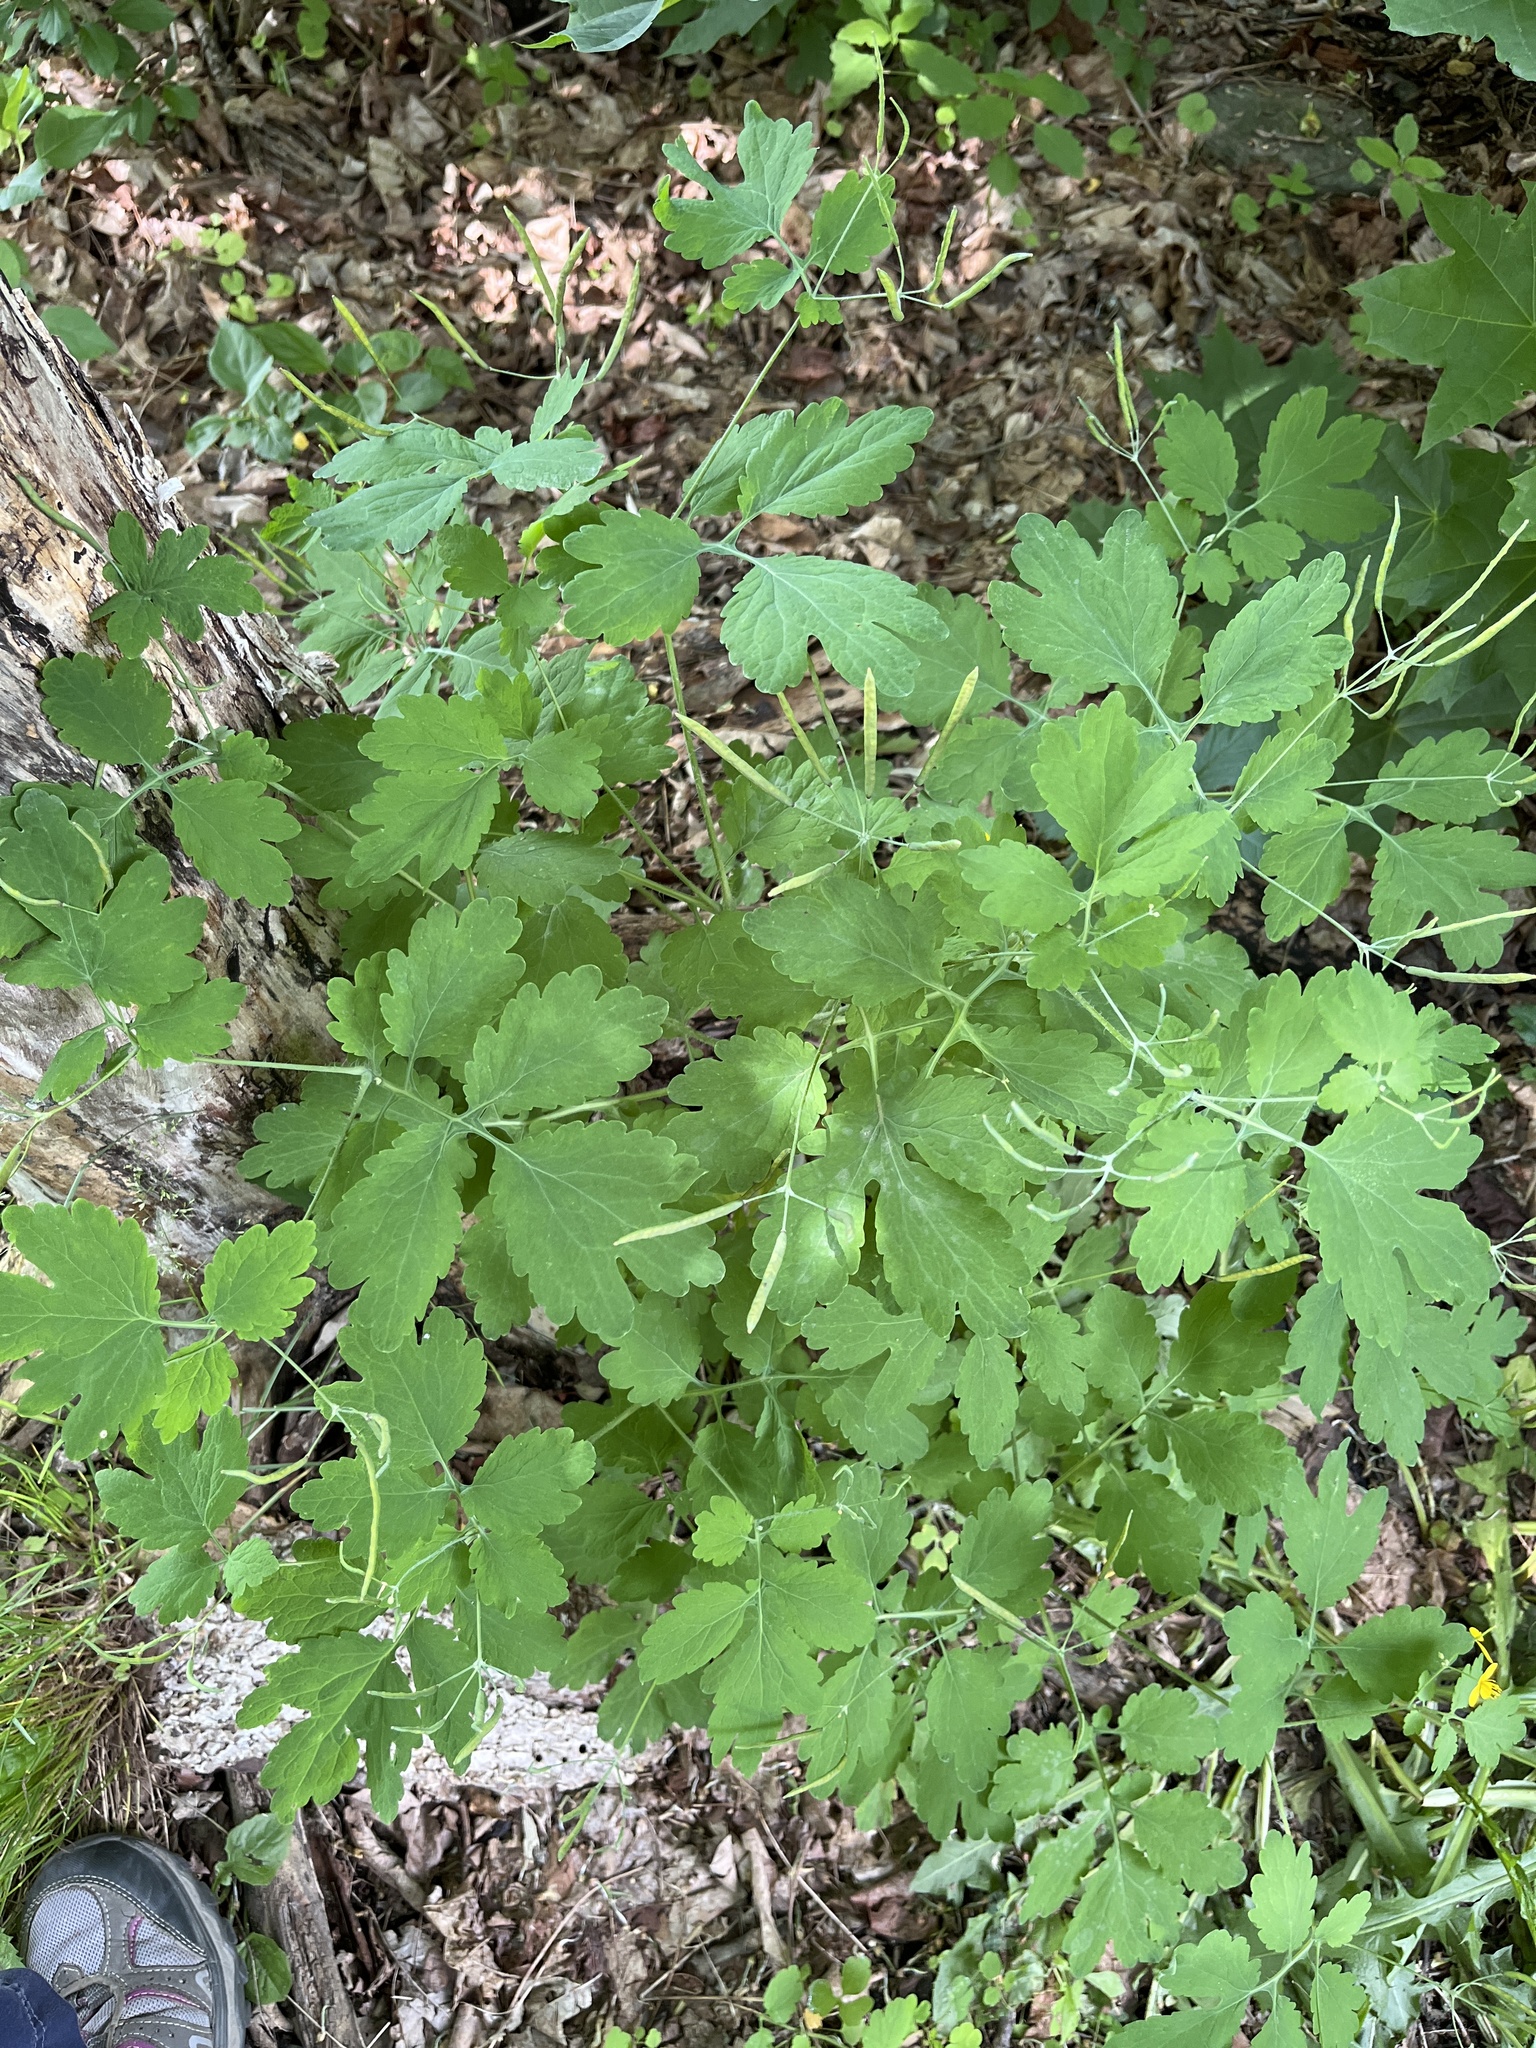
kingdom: Plantae
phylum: Tracheophyta
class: Magnoliopsida
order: Ranunculales
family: Papaveraceae
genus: Chelidonium
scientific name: Chelidonium majus
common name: Greater celandine
